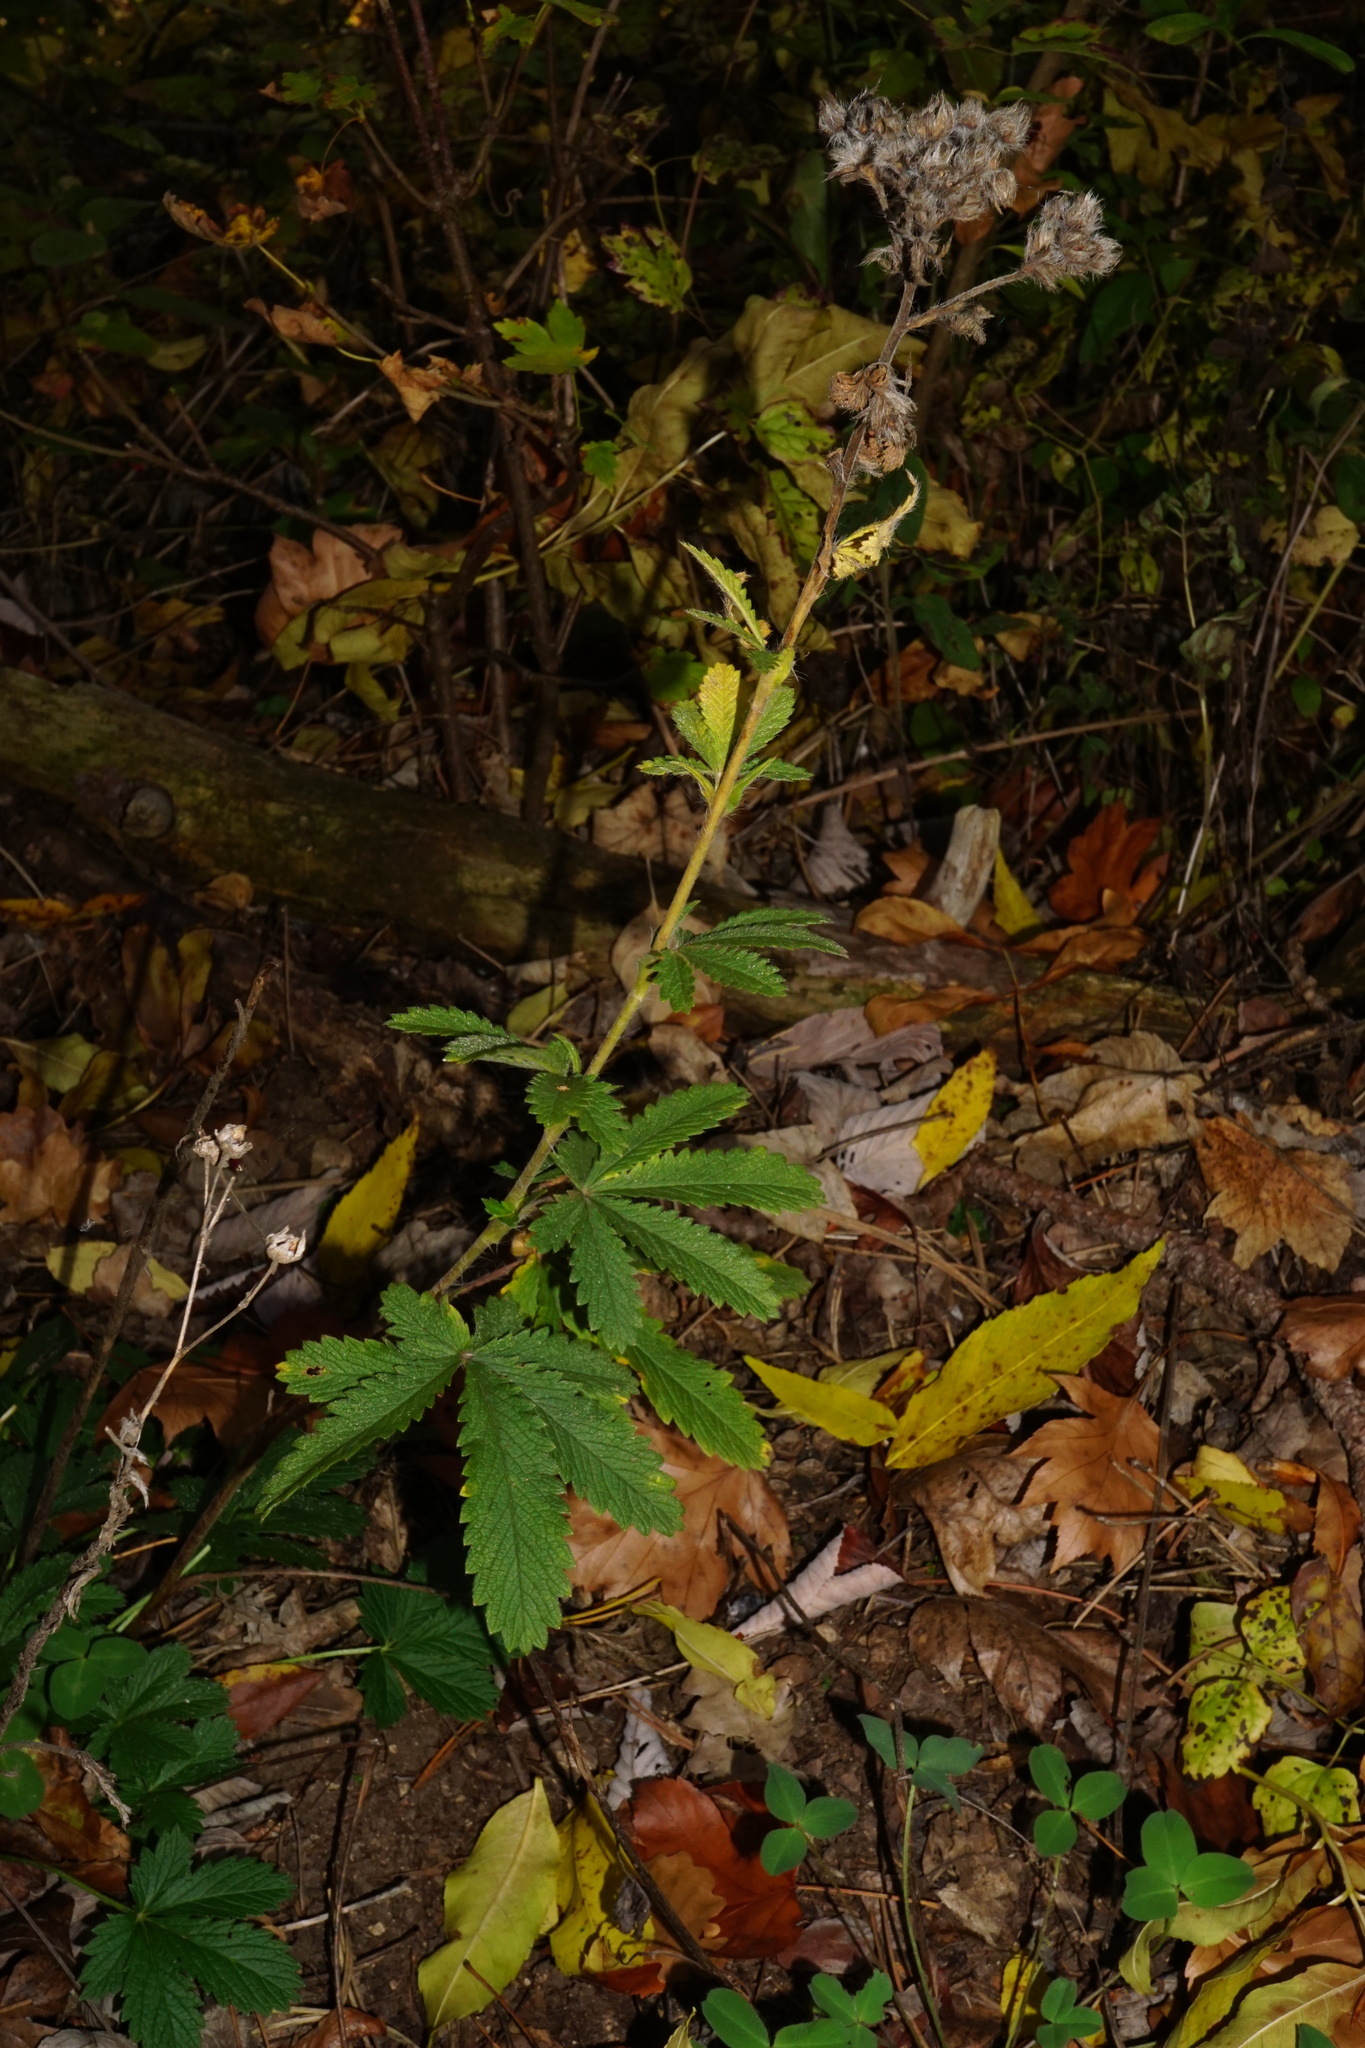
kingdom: Plantae
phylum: Tracheophyta
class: Magnoliopsida
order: Rosales
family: Rosaceae
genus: Potentilla
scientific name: Potentilla recta
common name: Sulphur cinquefoil
